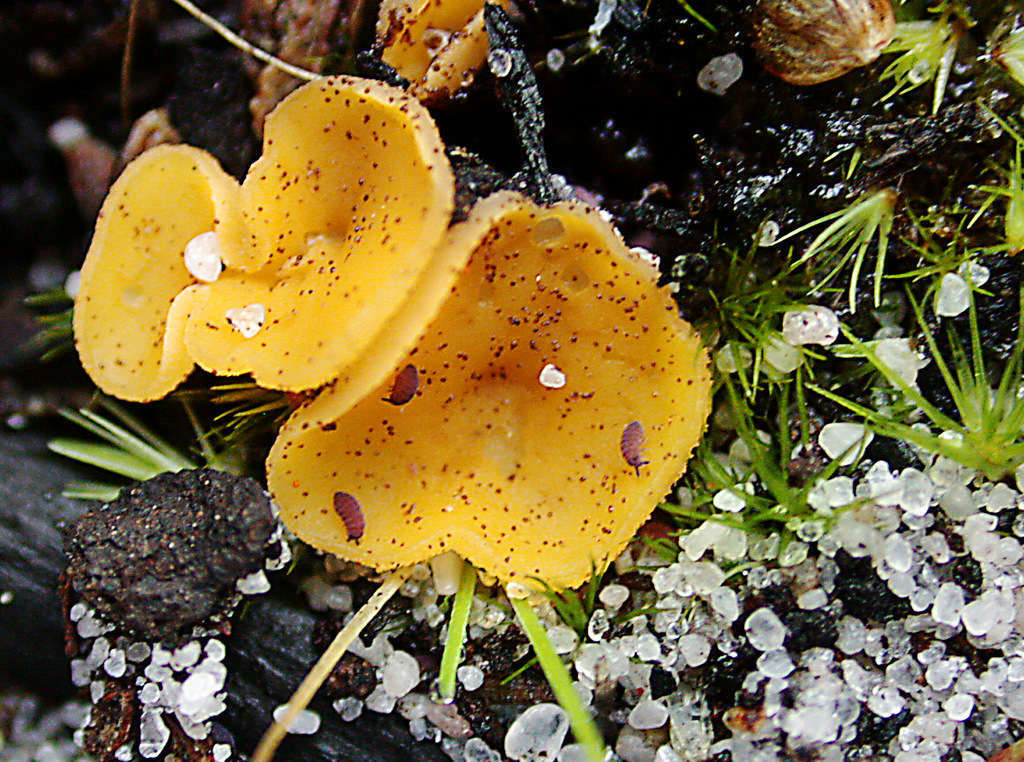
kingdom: Fungi
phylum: Ascomycota
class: Leotiomycetes
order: Helotiales
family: Helotiaceae
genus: Phaeohelotium
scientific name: Phaeohelotium baileyanum
